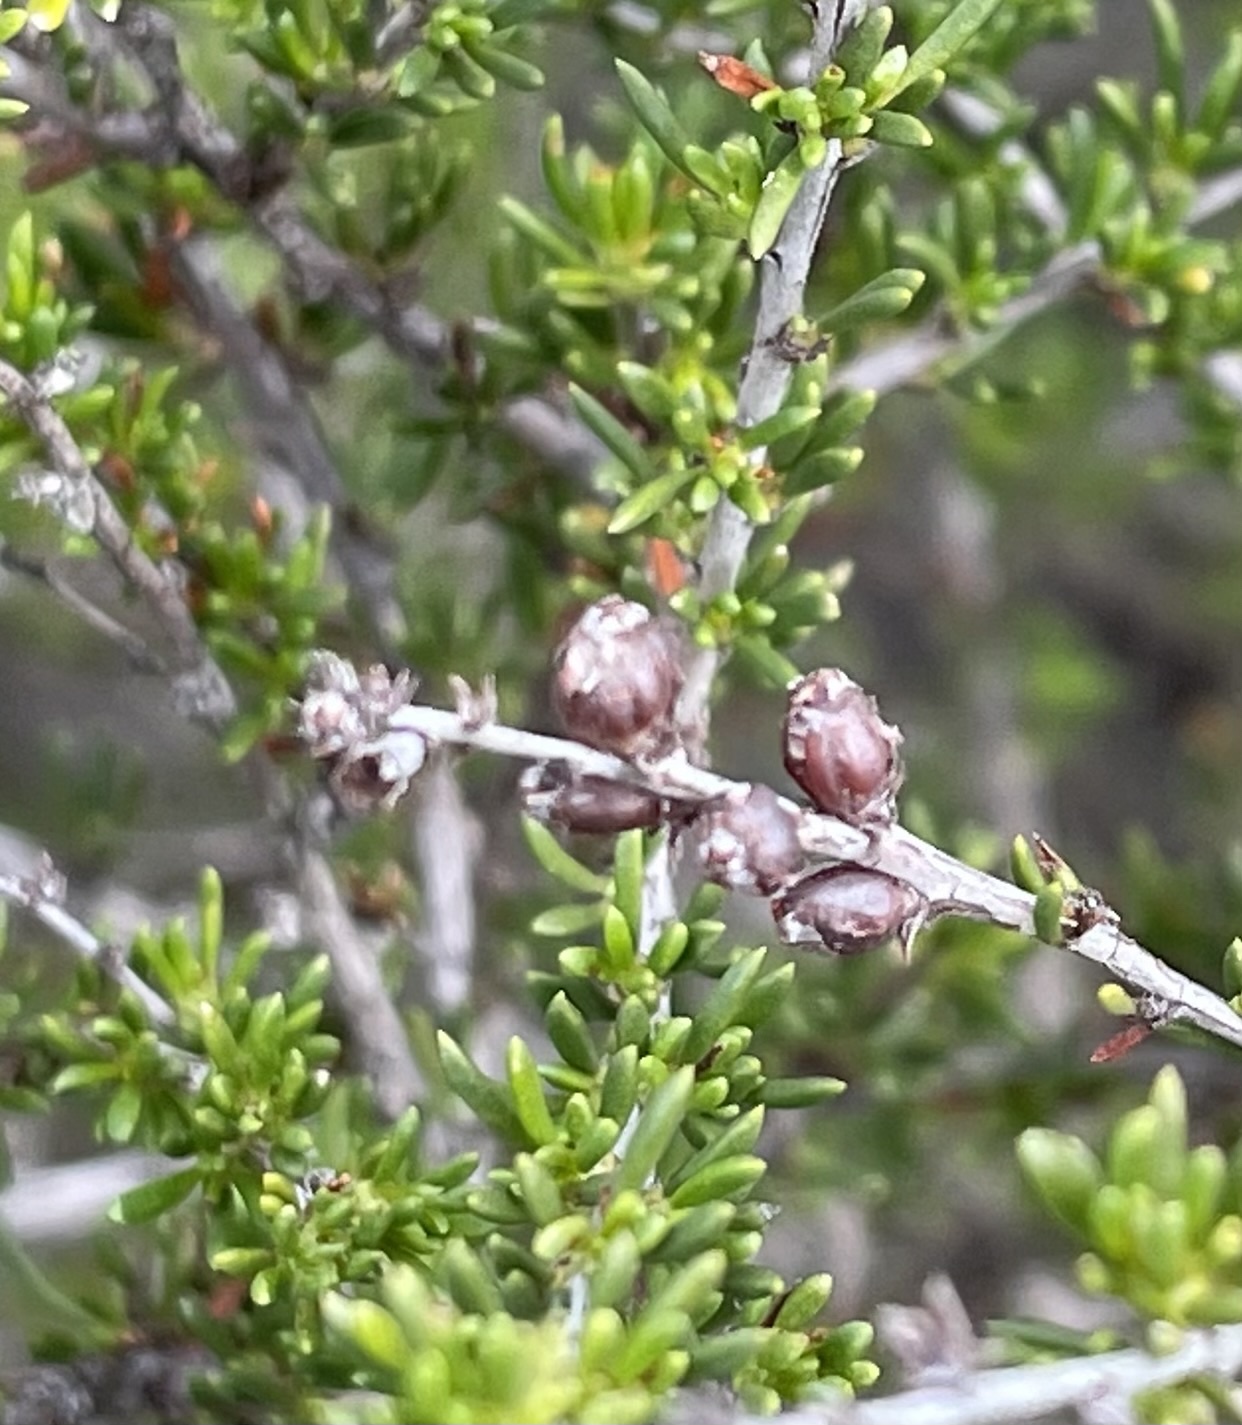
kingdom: Animalia
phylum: Arthropoda
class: Insecta
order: Diptera
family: Cecidomyiidae
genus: Asphondylia
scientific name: Asphondylia adenostoma
